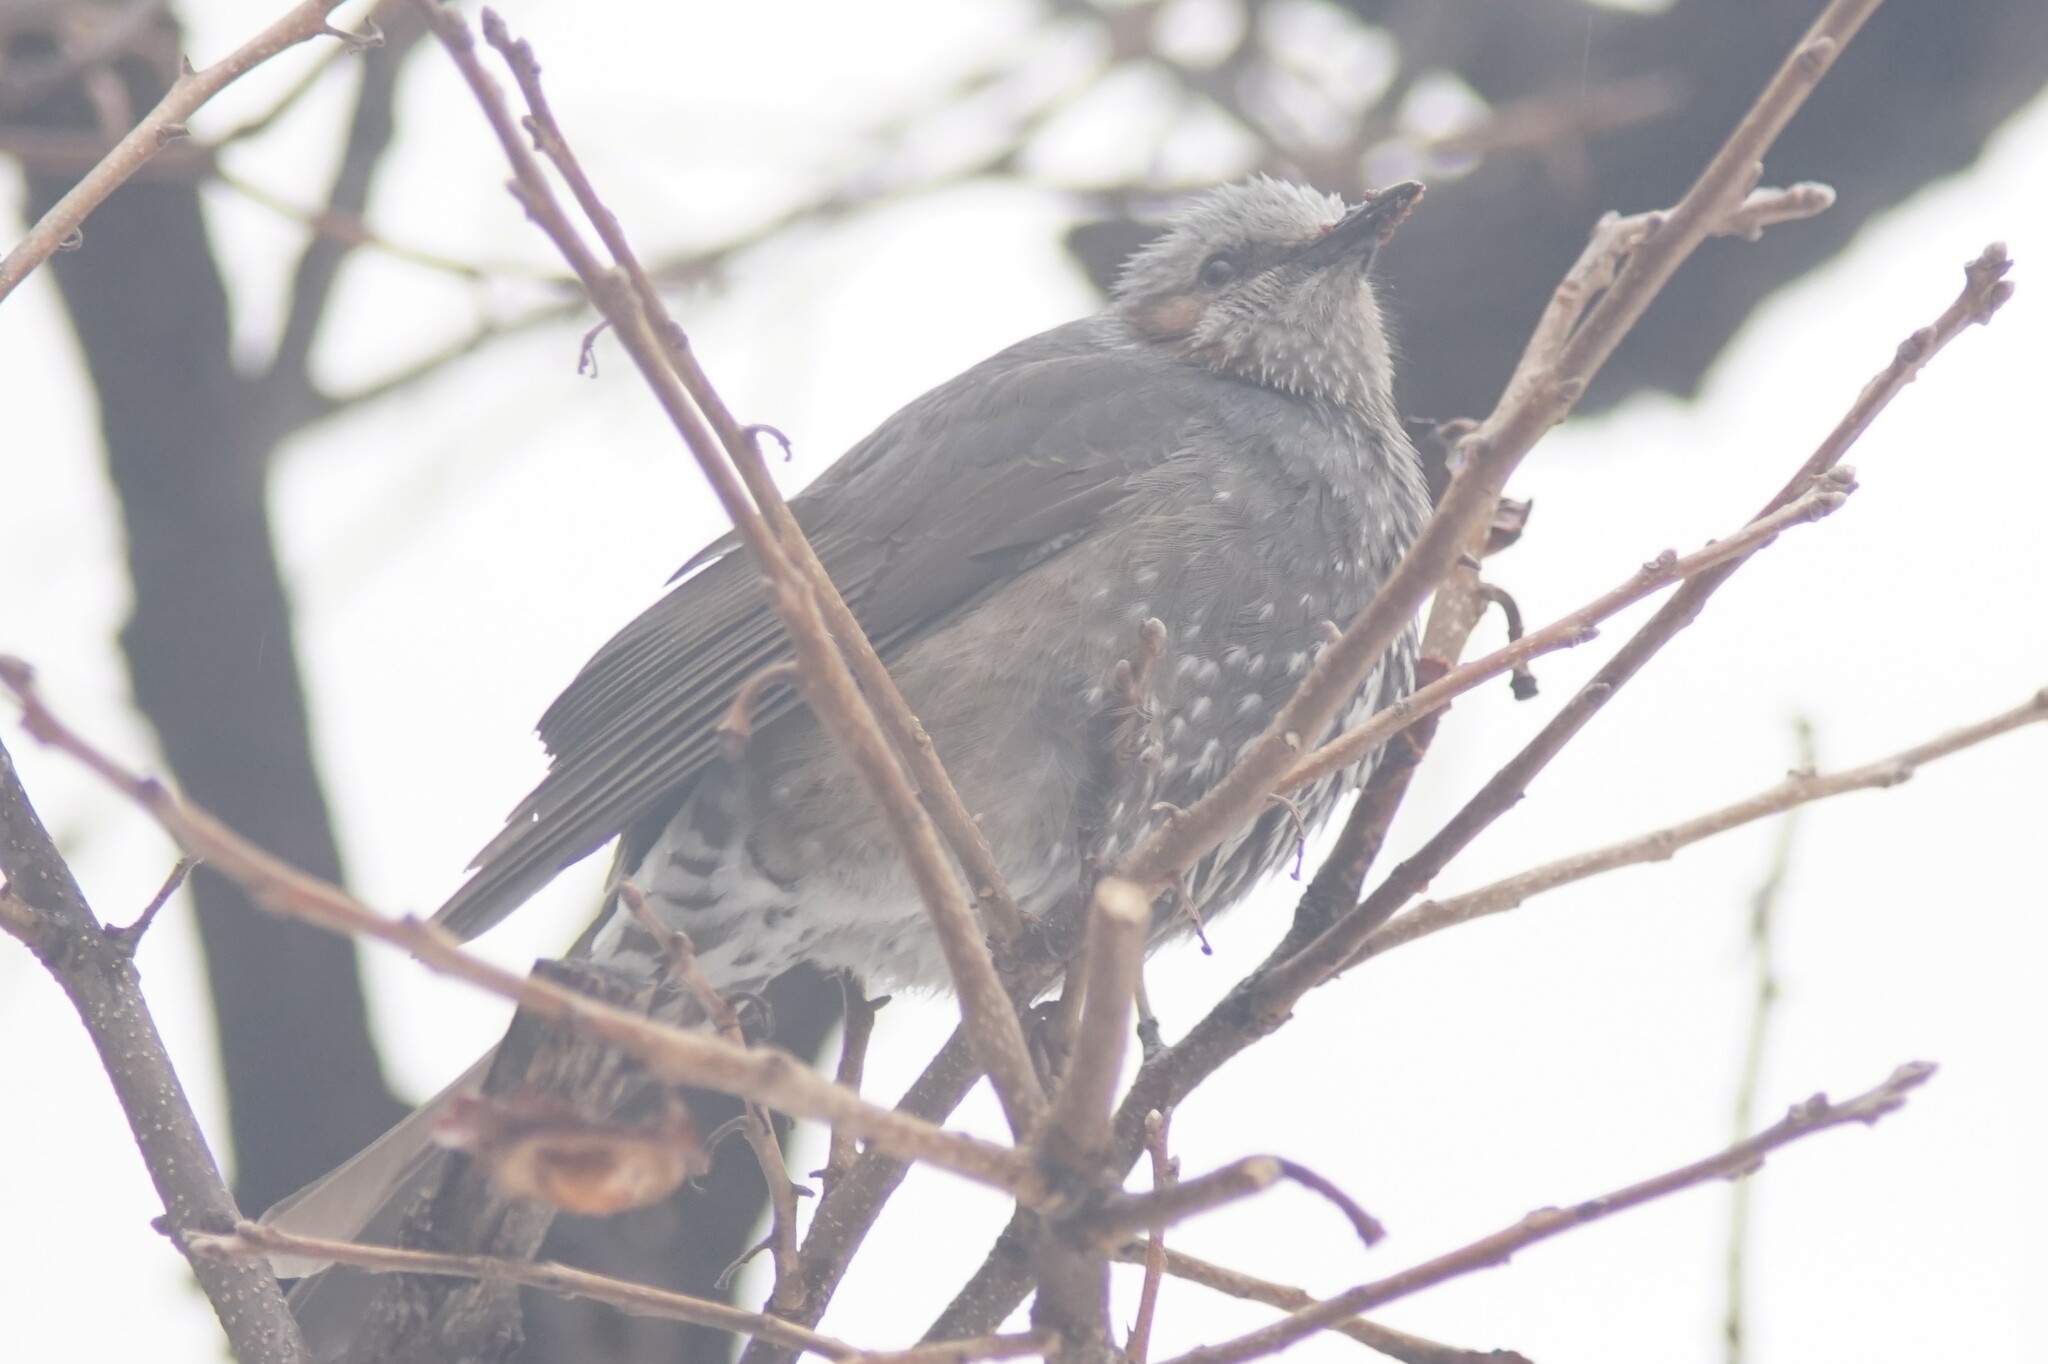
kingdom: Animalia
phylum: Chordata
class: Aves
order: Passeriformes
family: Pycnonotidae
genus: Hypsipetes
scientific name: Hypsipetes amaurotis
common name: Brown-eared bulbul
